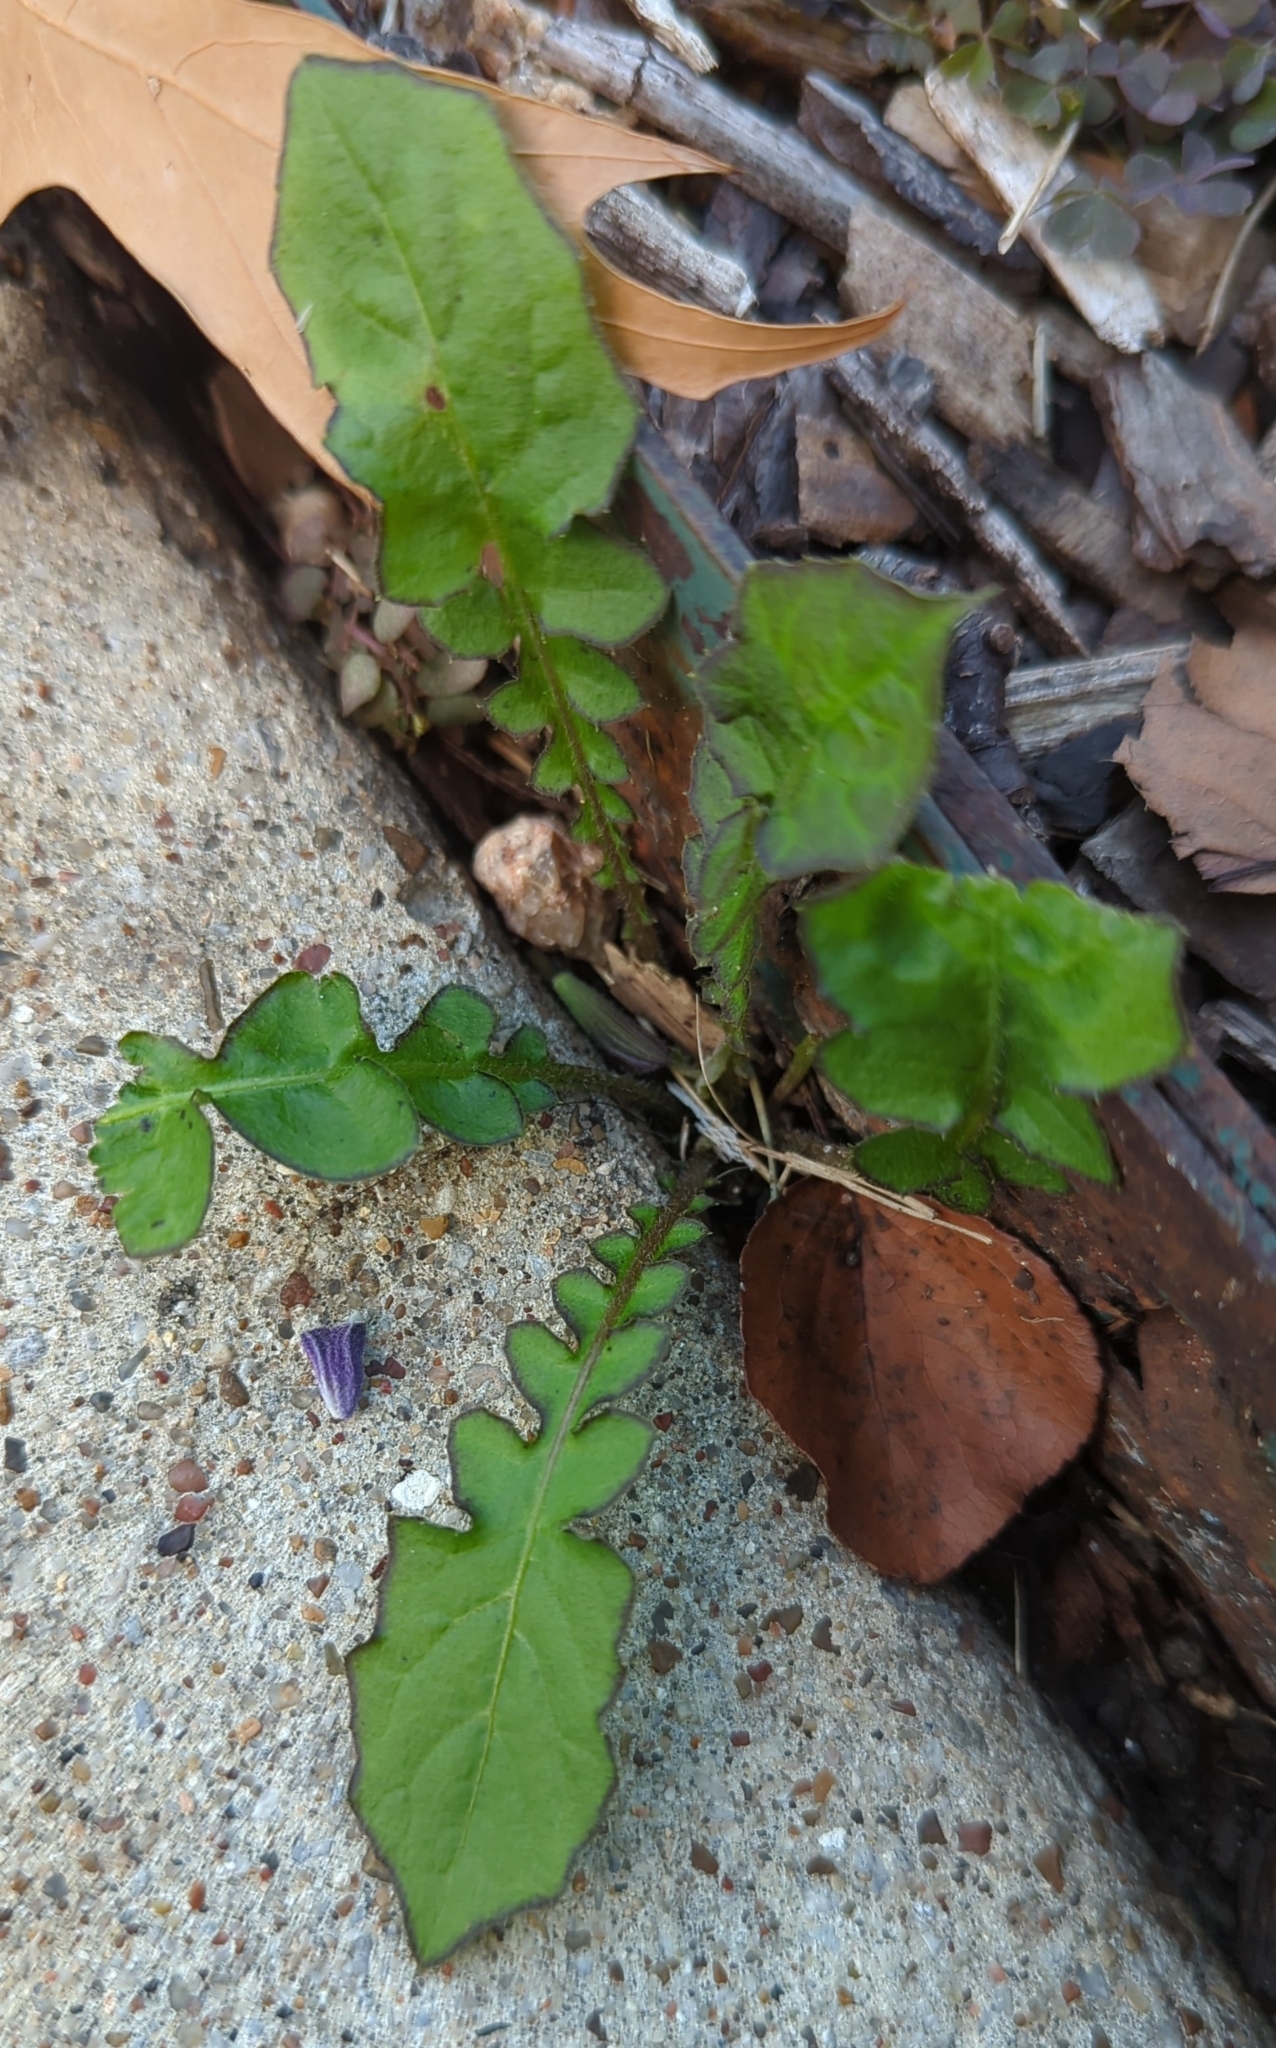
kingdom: Plantae
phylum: Tracheophyta
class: Magnoliopsida
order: Asterales
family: Asteraceae
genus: Youngia
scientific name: Youngia japonica
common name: Oriental false hawksbeard
